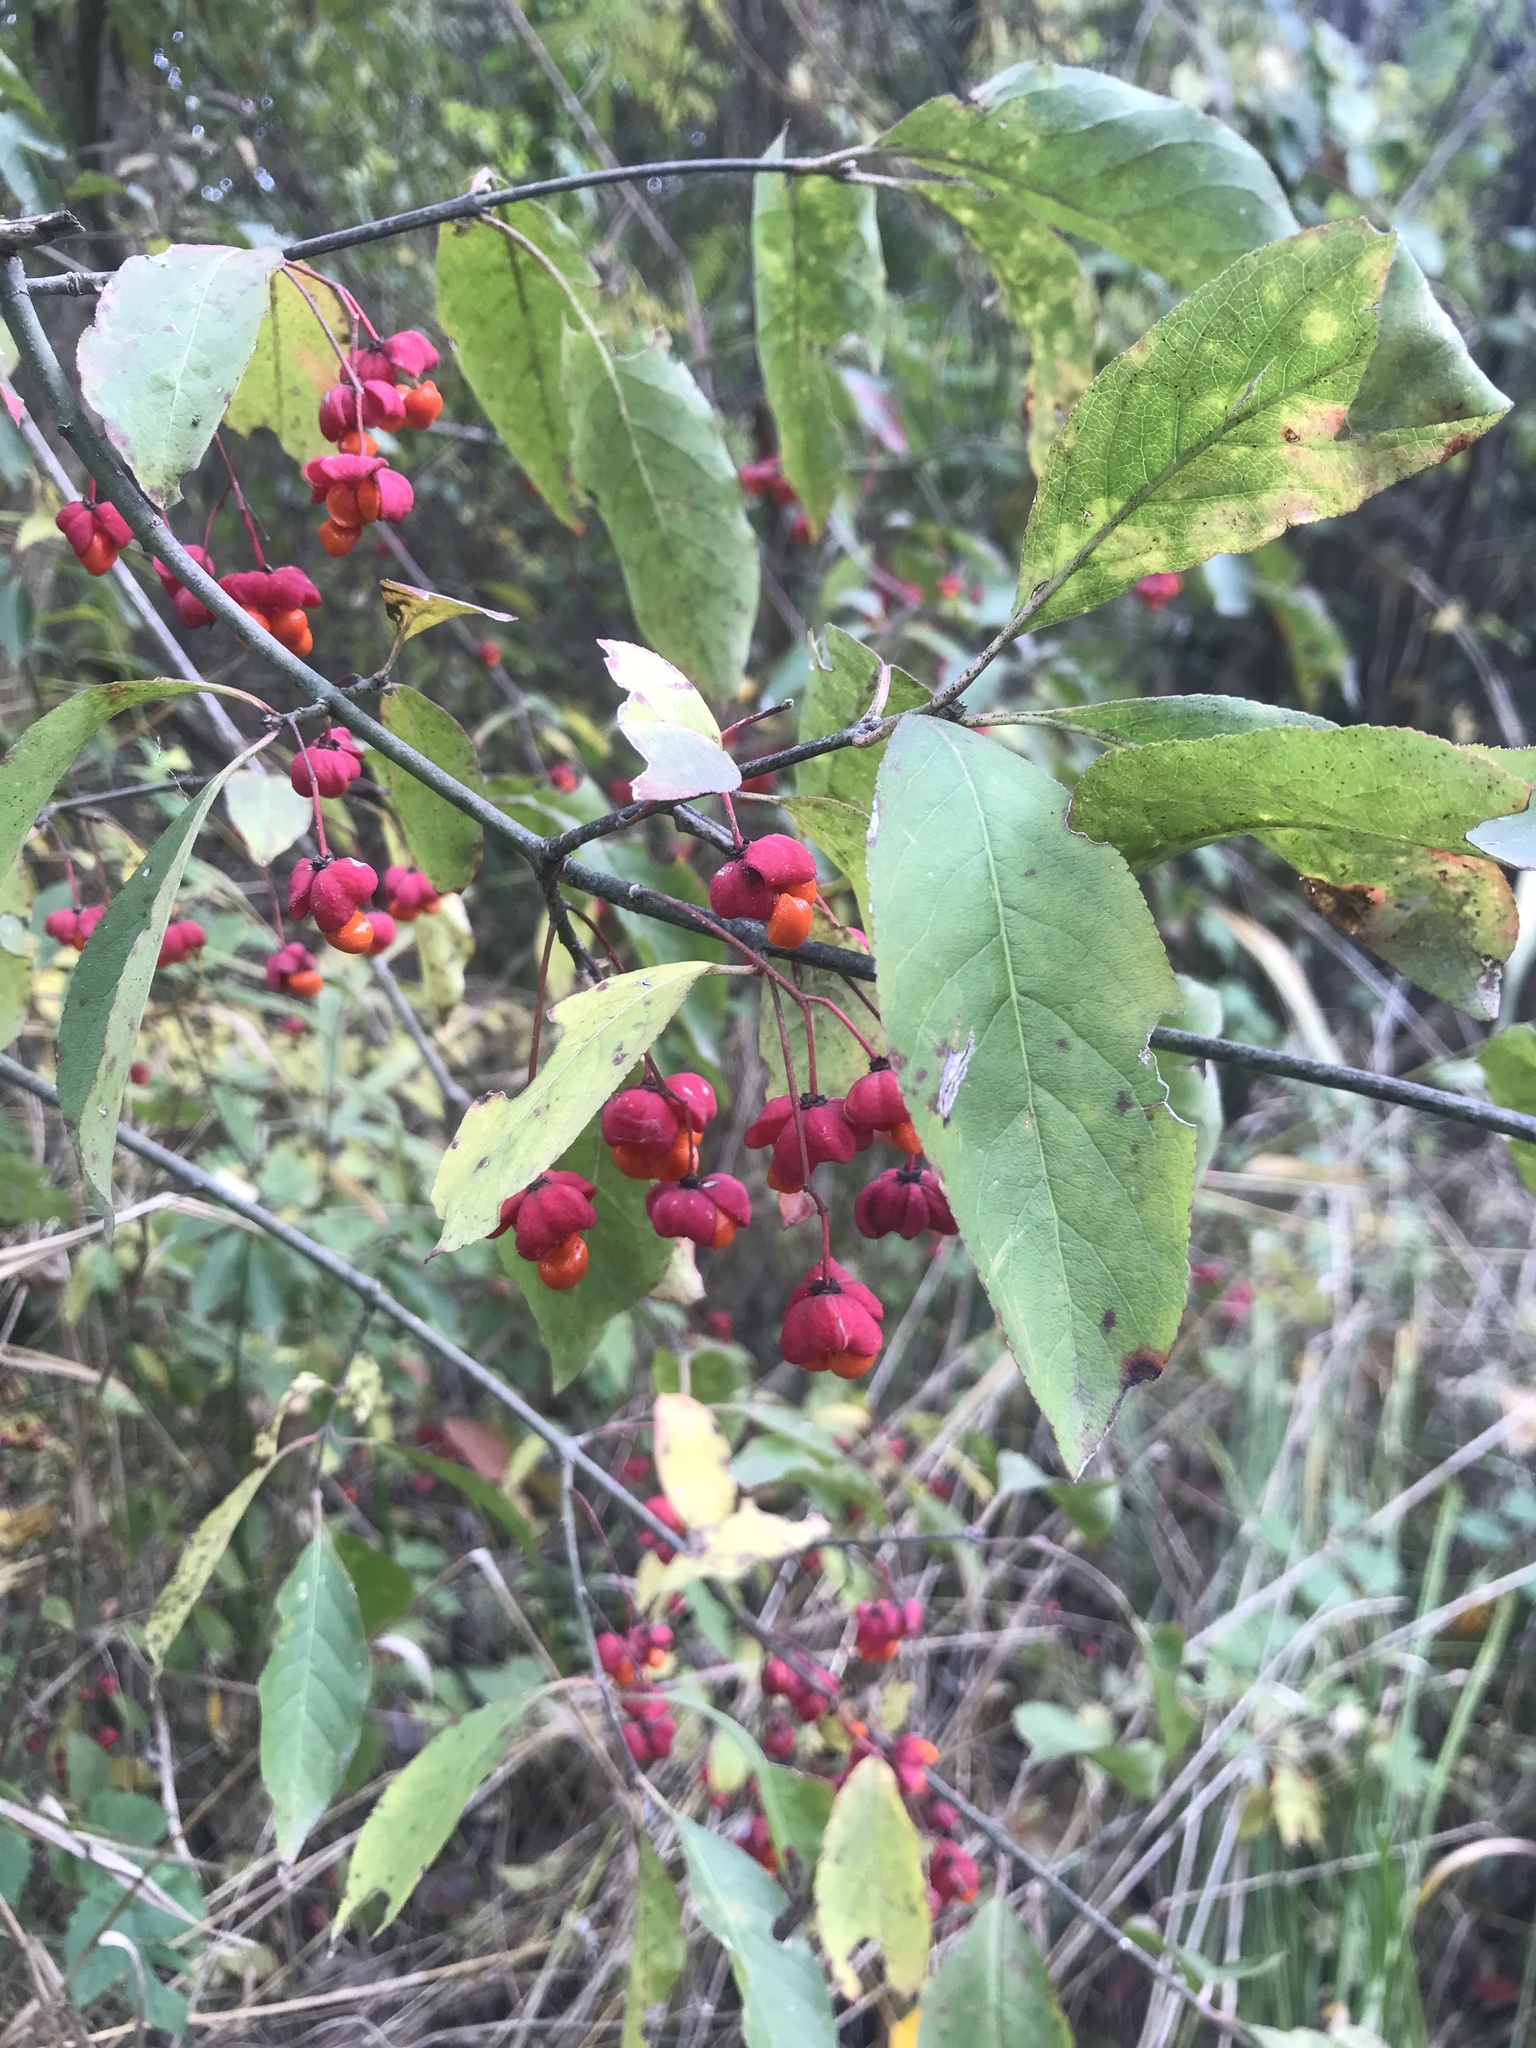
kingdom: Plantae
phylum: Tracheophyta
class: Magnoliopsida
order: Celastrales
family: Celastraceae
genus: Euonymus
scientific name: Euonymus europaeus
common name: Spindle
